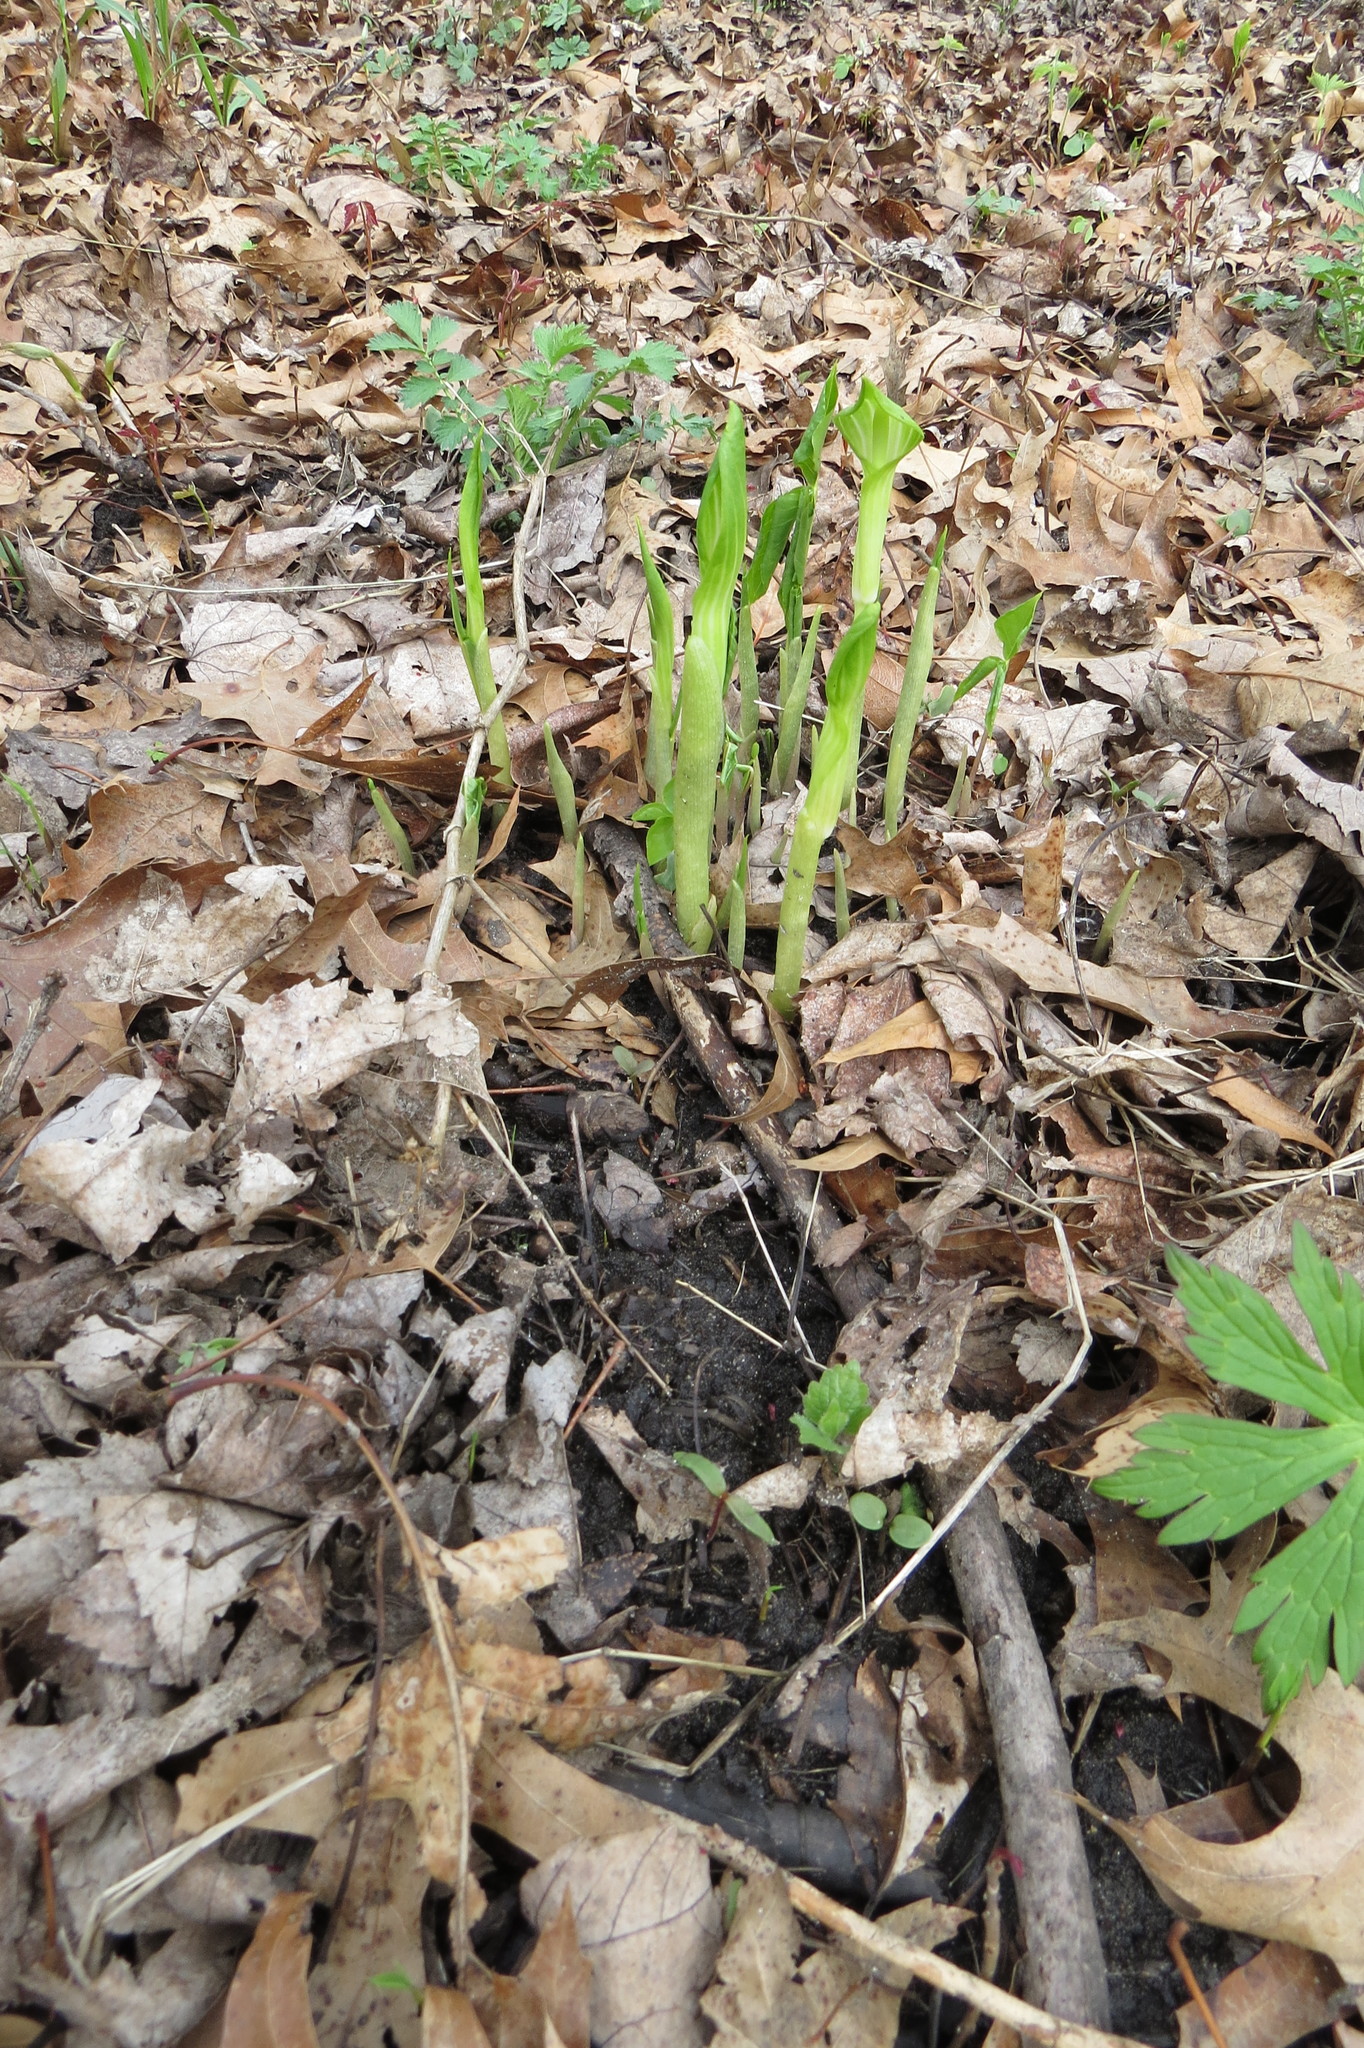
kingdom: Plantae
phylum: Tracheophyta
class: Liliopsida
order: Alismatales
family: Araceae
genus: Arisaema
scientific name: Arisaema triphyllum
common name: Jack-in-the-pulpit
